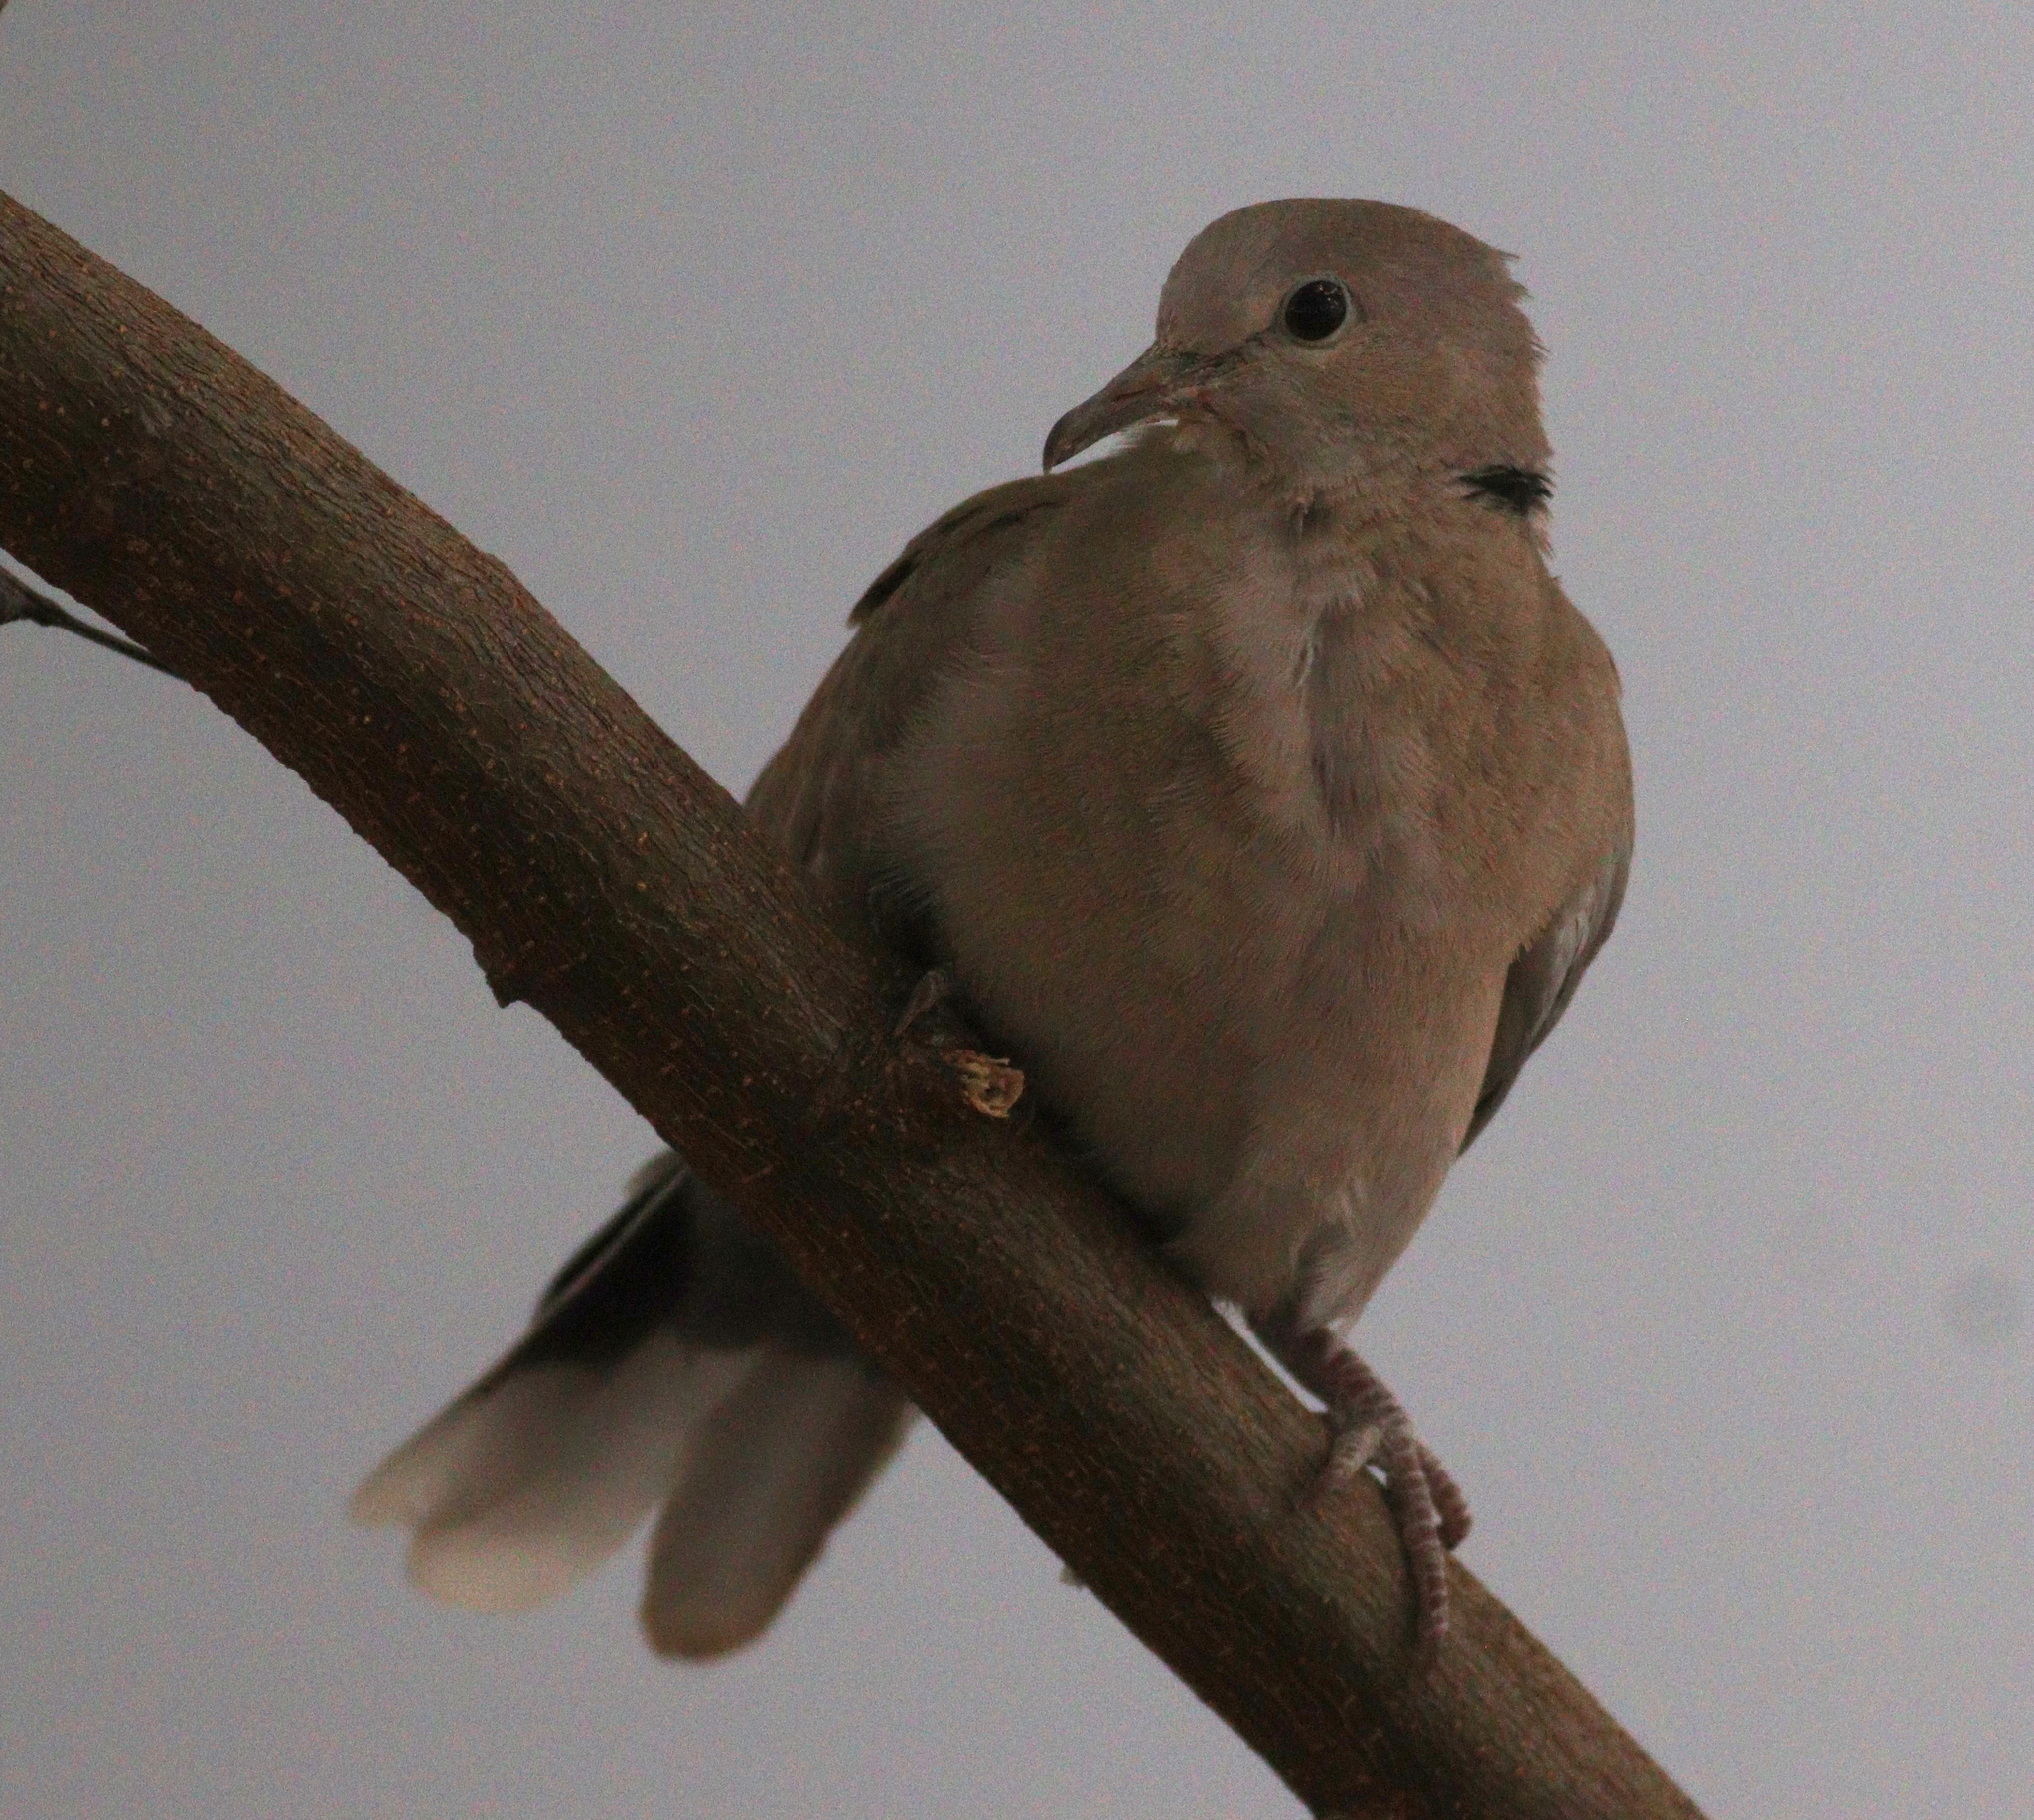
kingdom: Animalia
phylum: Chordata
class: Aves
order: Columbiformes
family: Columbidae
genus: Streptopelia
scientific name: Streptopelia decaocto
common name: Eurasian collared dove
